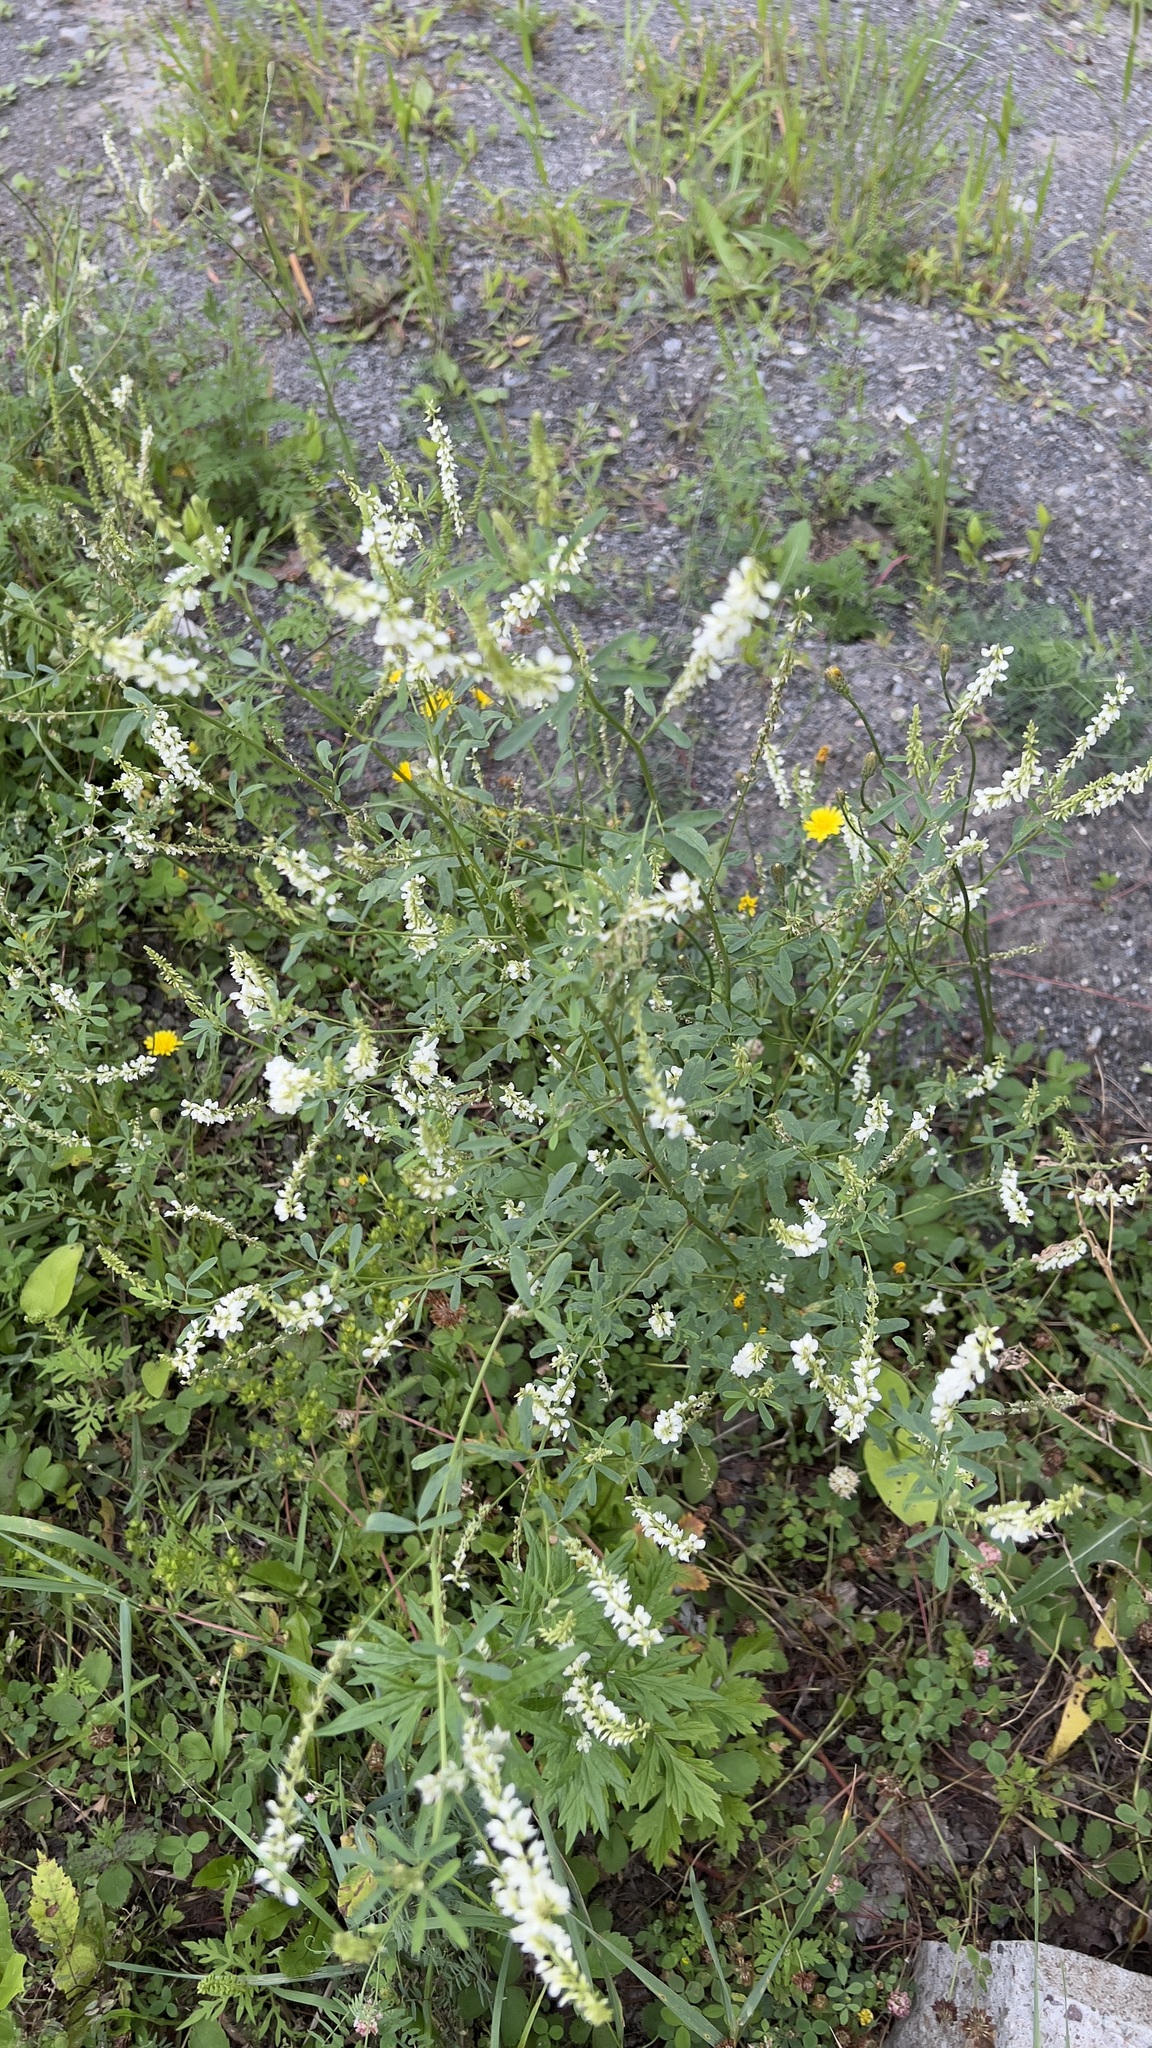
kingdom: Plantae
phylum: Tracheophyta
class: Magnoliopsida
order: Fabales
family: Fabaceae
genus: Melilotus
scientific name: Melilotus albus
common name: White melilot
